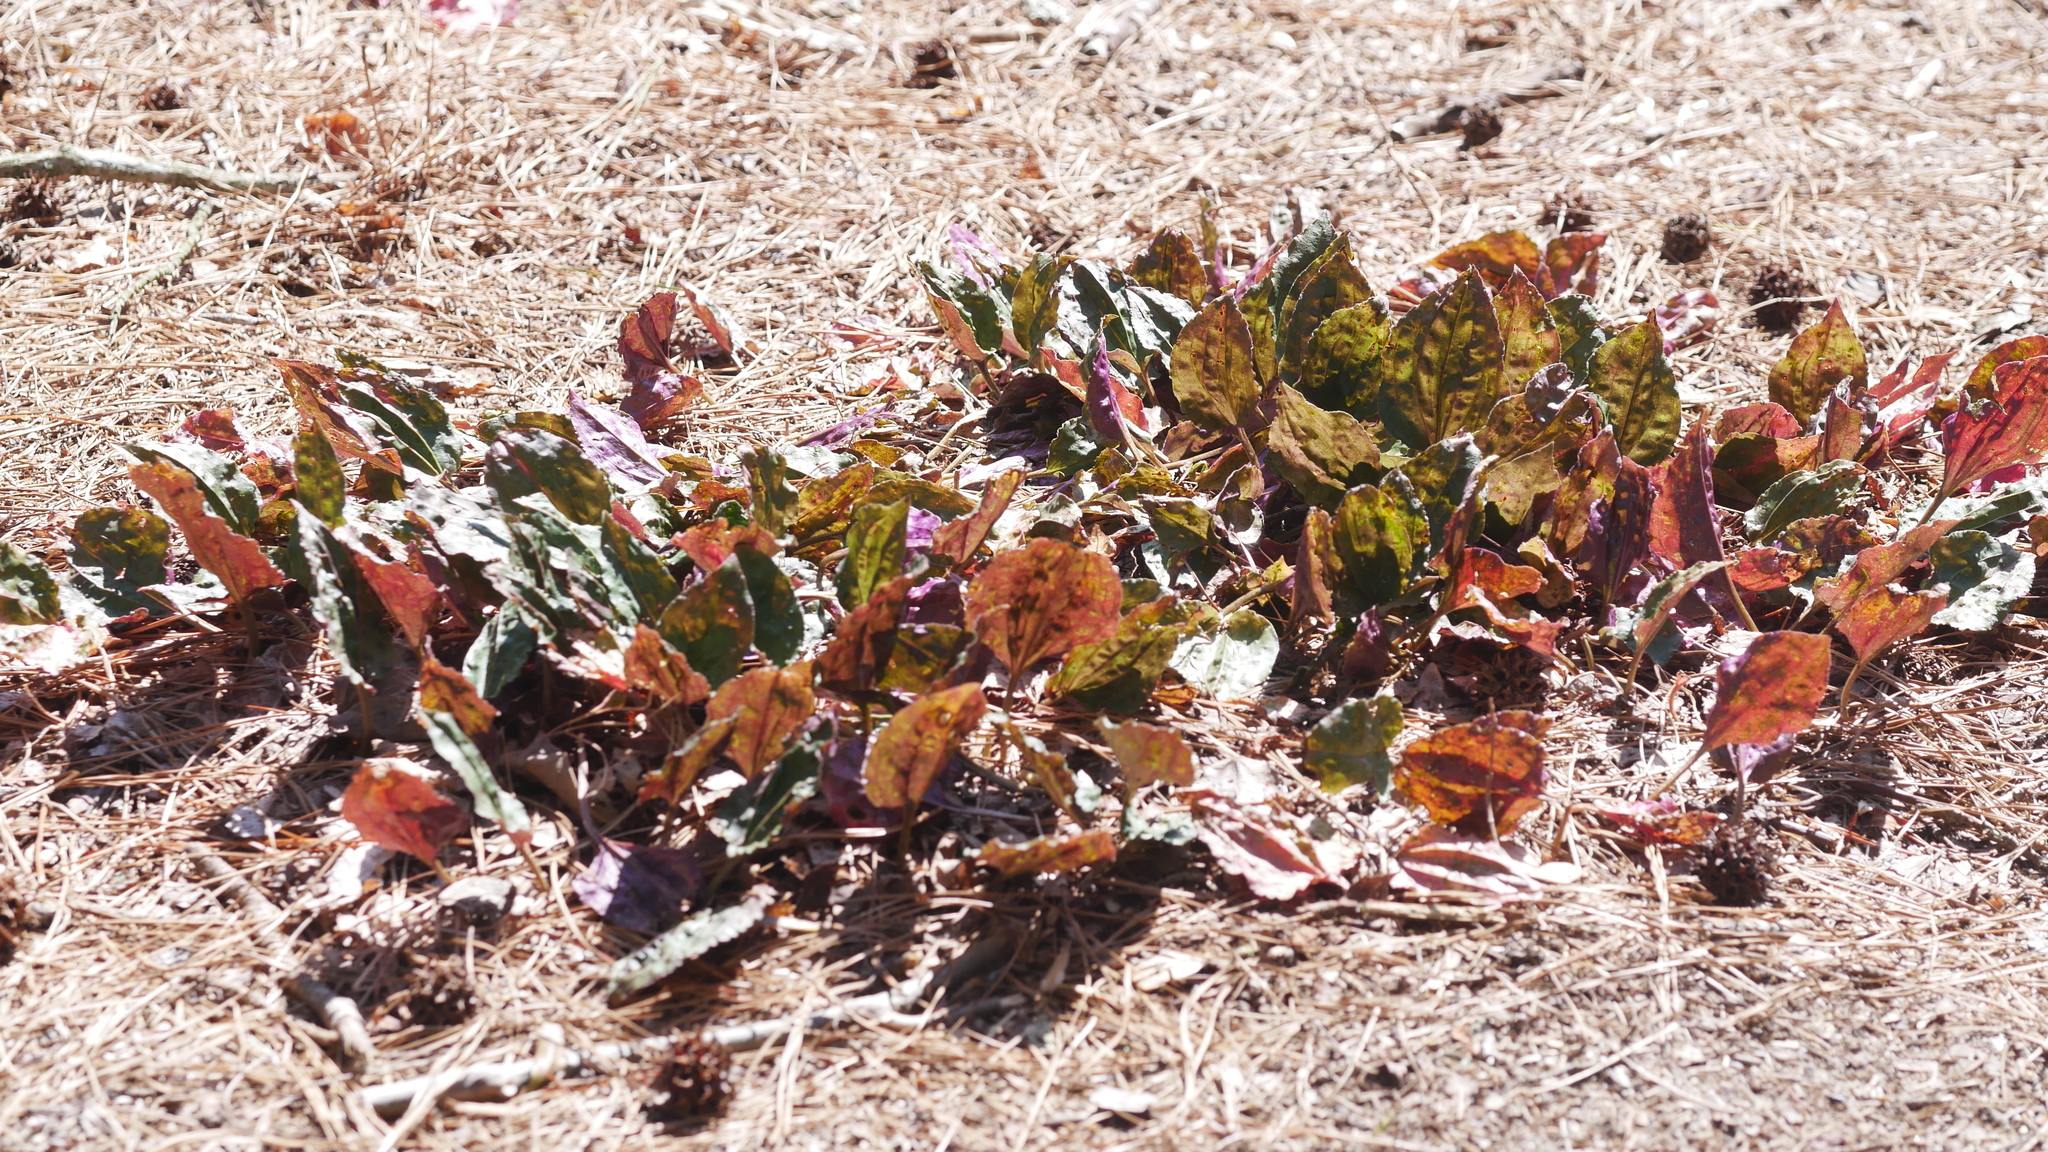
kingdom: Plantae
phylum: Tracheophyta
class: Liliopsida
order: Asparagales
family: Orchidaceae
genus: Tipularia
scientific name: Tipularia discolor
